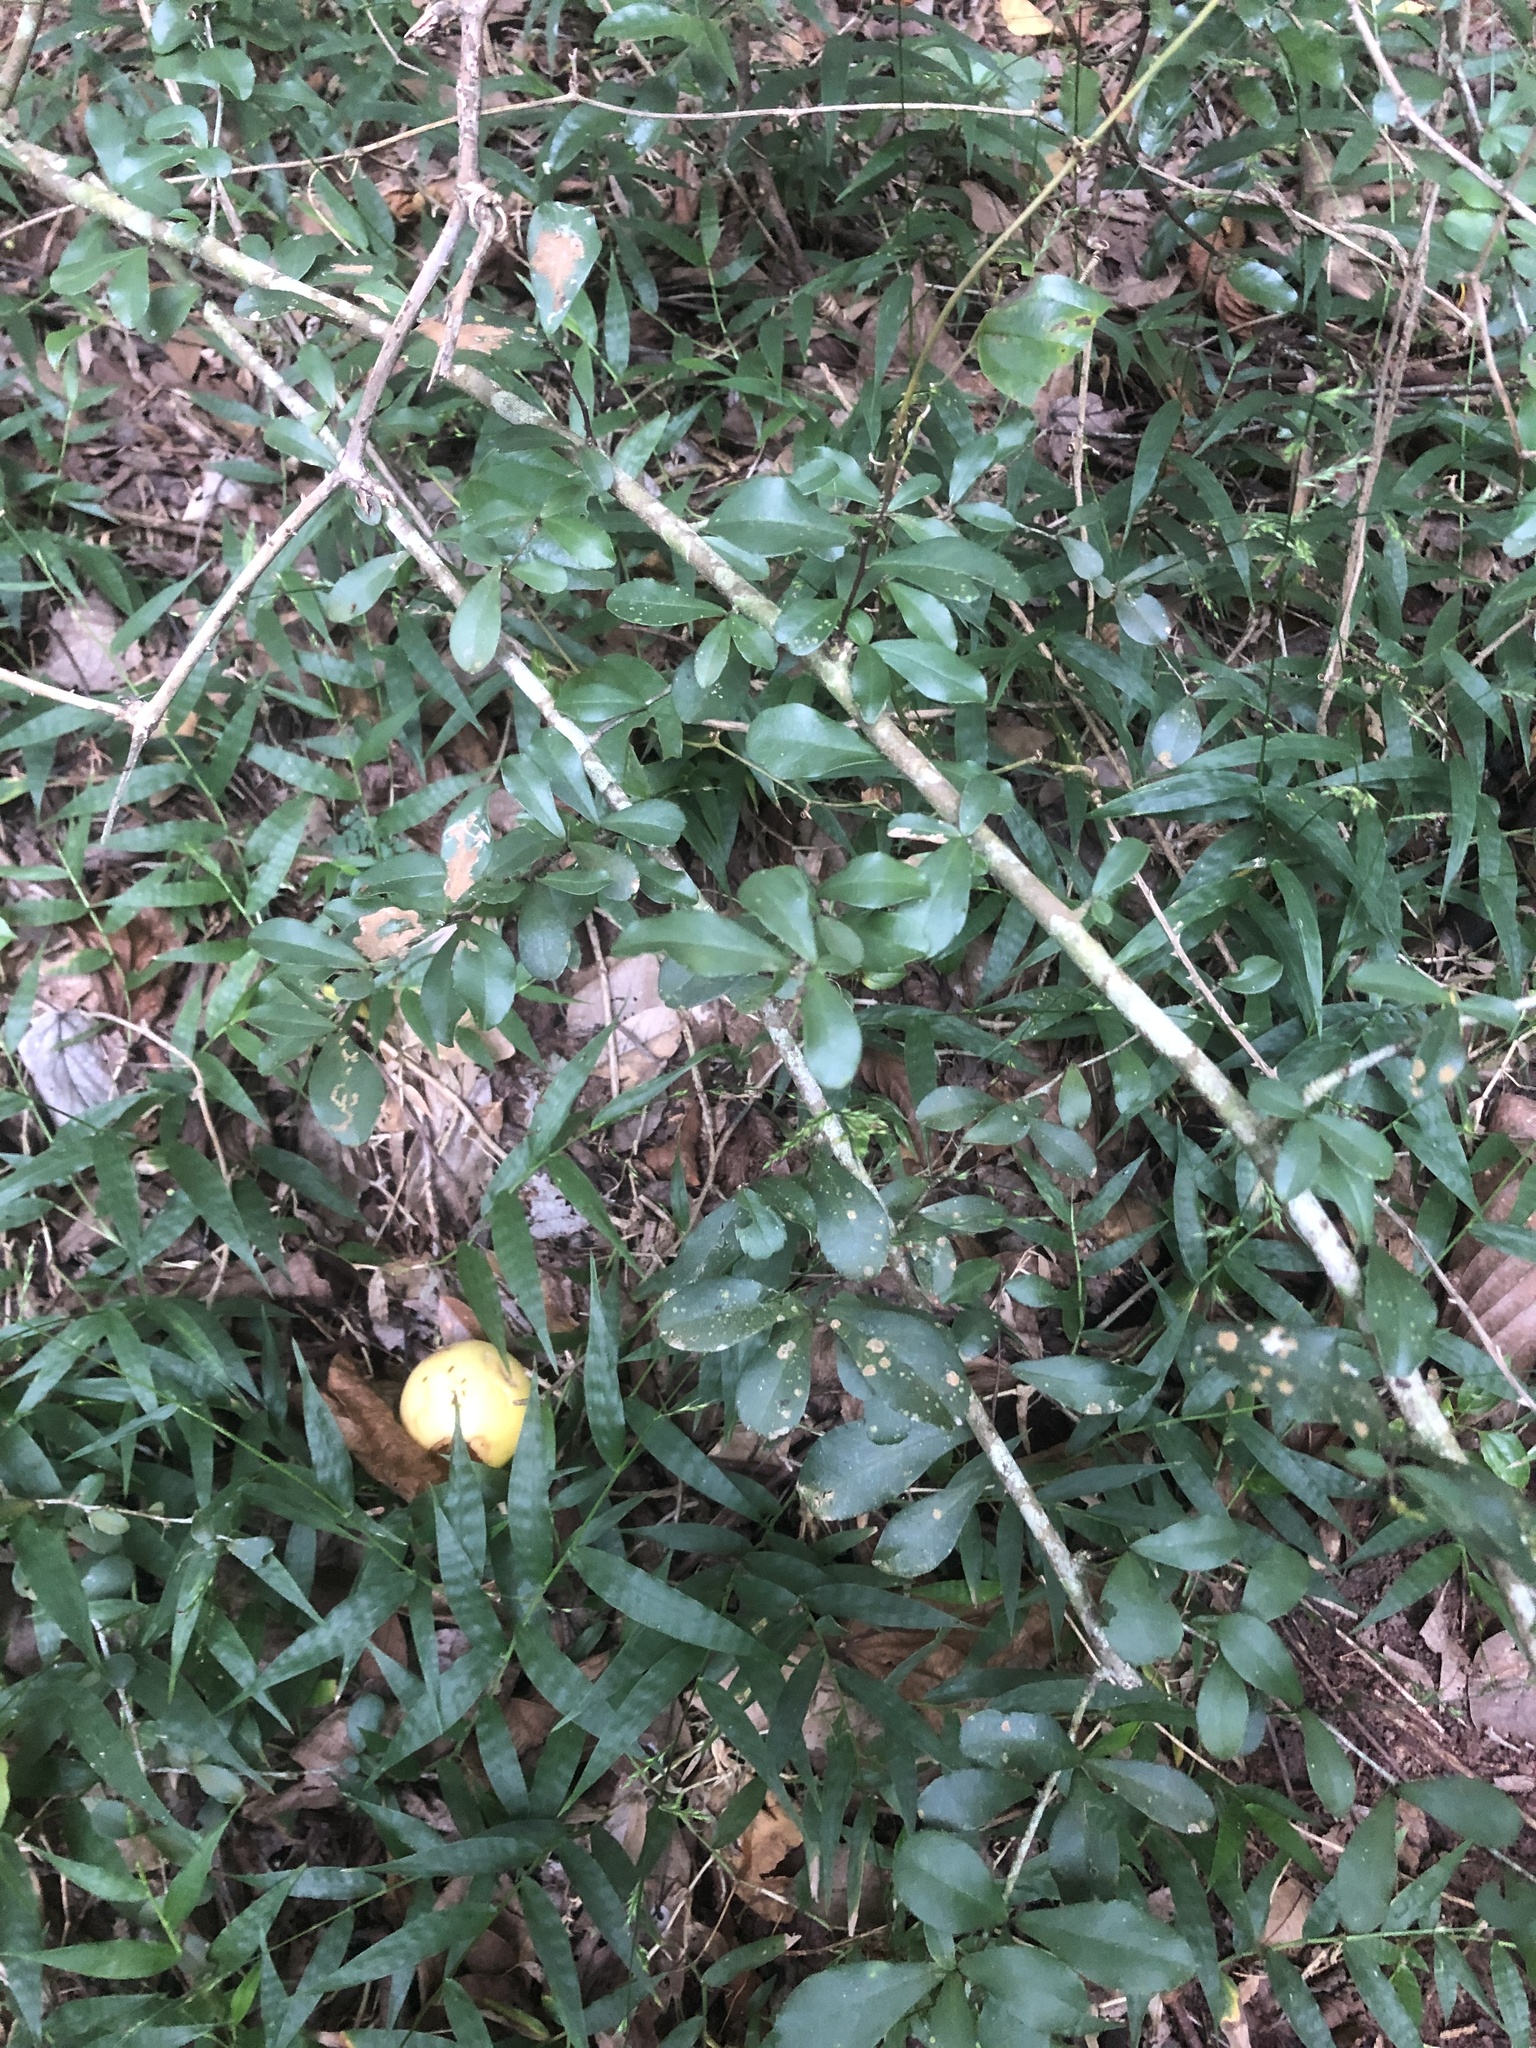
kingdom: Plantae
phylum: Tracheophyta
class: Magnoliopsida
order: Celastrales
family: Celastraceae
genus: Putterlickia
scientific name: Putterlickia verrucosa
